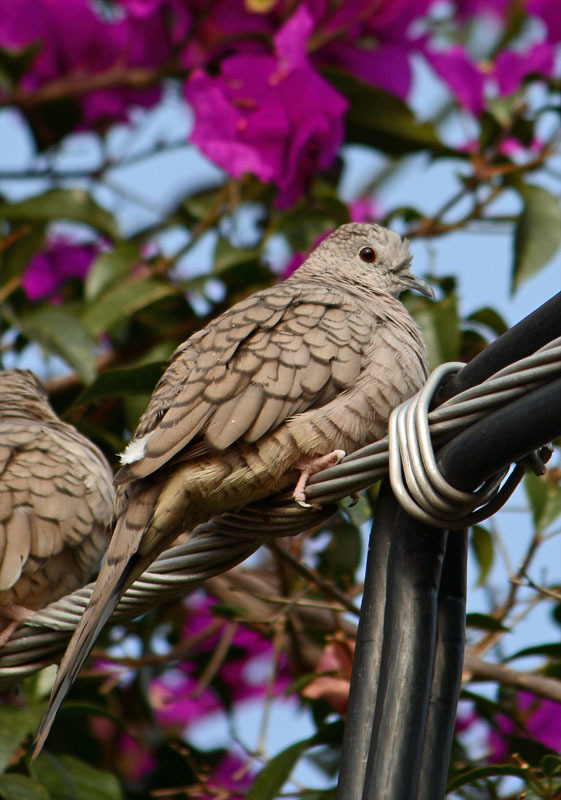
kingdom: Animalia
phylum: Chordata
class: Aves
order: Columbiformes
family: Columbidae
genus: Columbina
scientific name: Columbina inca
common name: Inca dove
